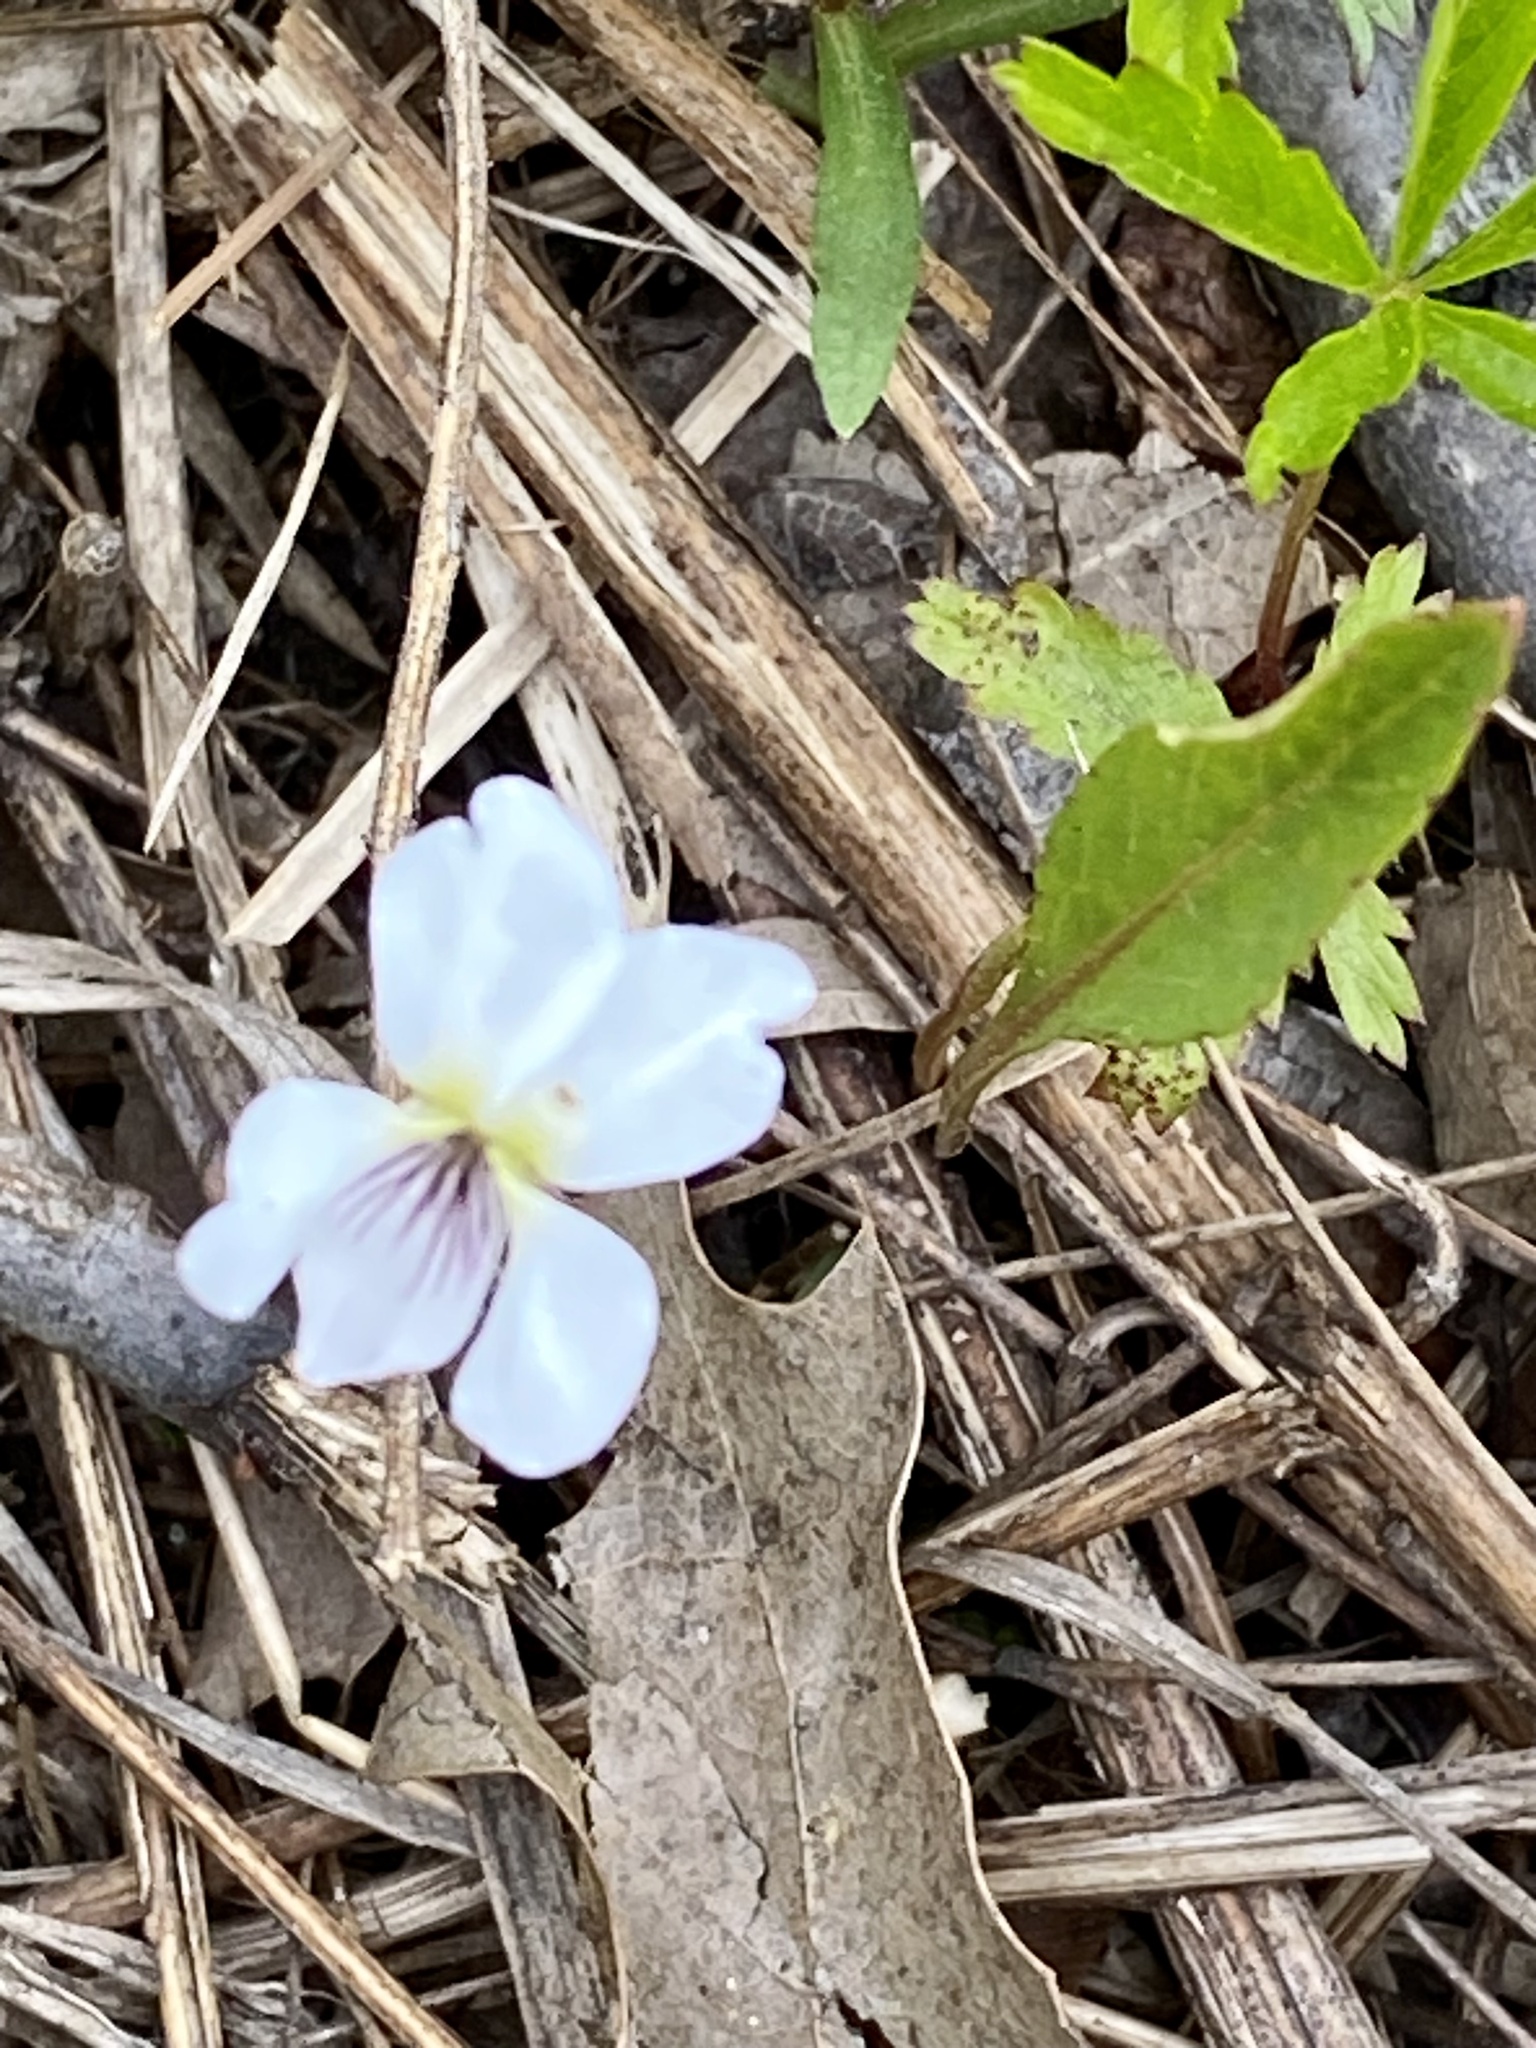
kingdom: Plantae
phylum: Tracheophyta
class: Magnoliopsida
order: Malpighiales
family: Violaceae
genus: Viola
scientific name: Viola lanceolata
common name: Bog white violet
